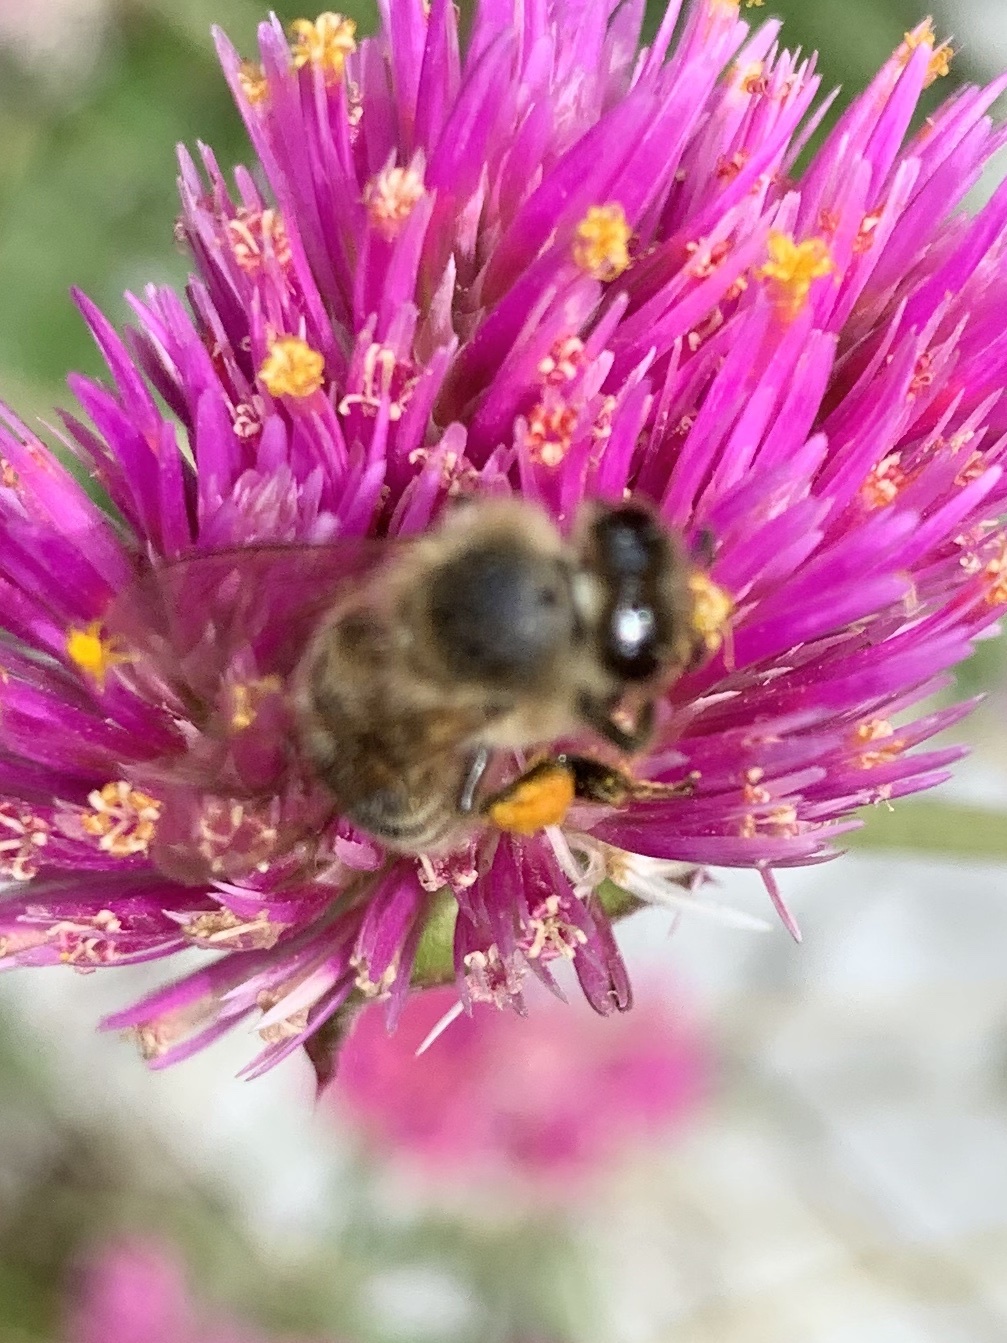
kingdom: Animalia
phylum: Arthropoda
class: Insecta
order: Hymenoptera
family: Apidae
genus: Apis
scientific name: Apis mellifera
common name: Honey bee
